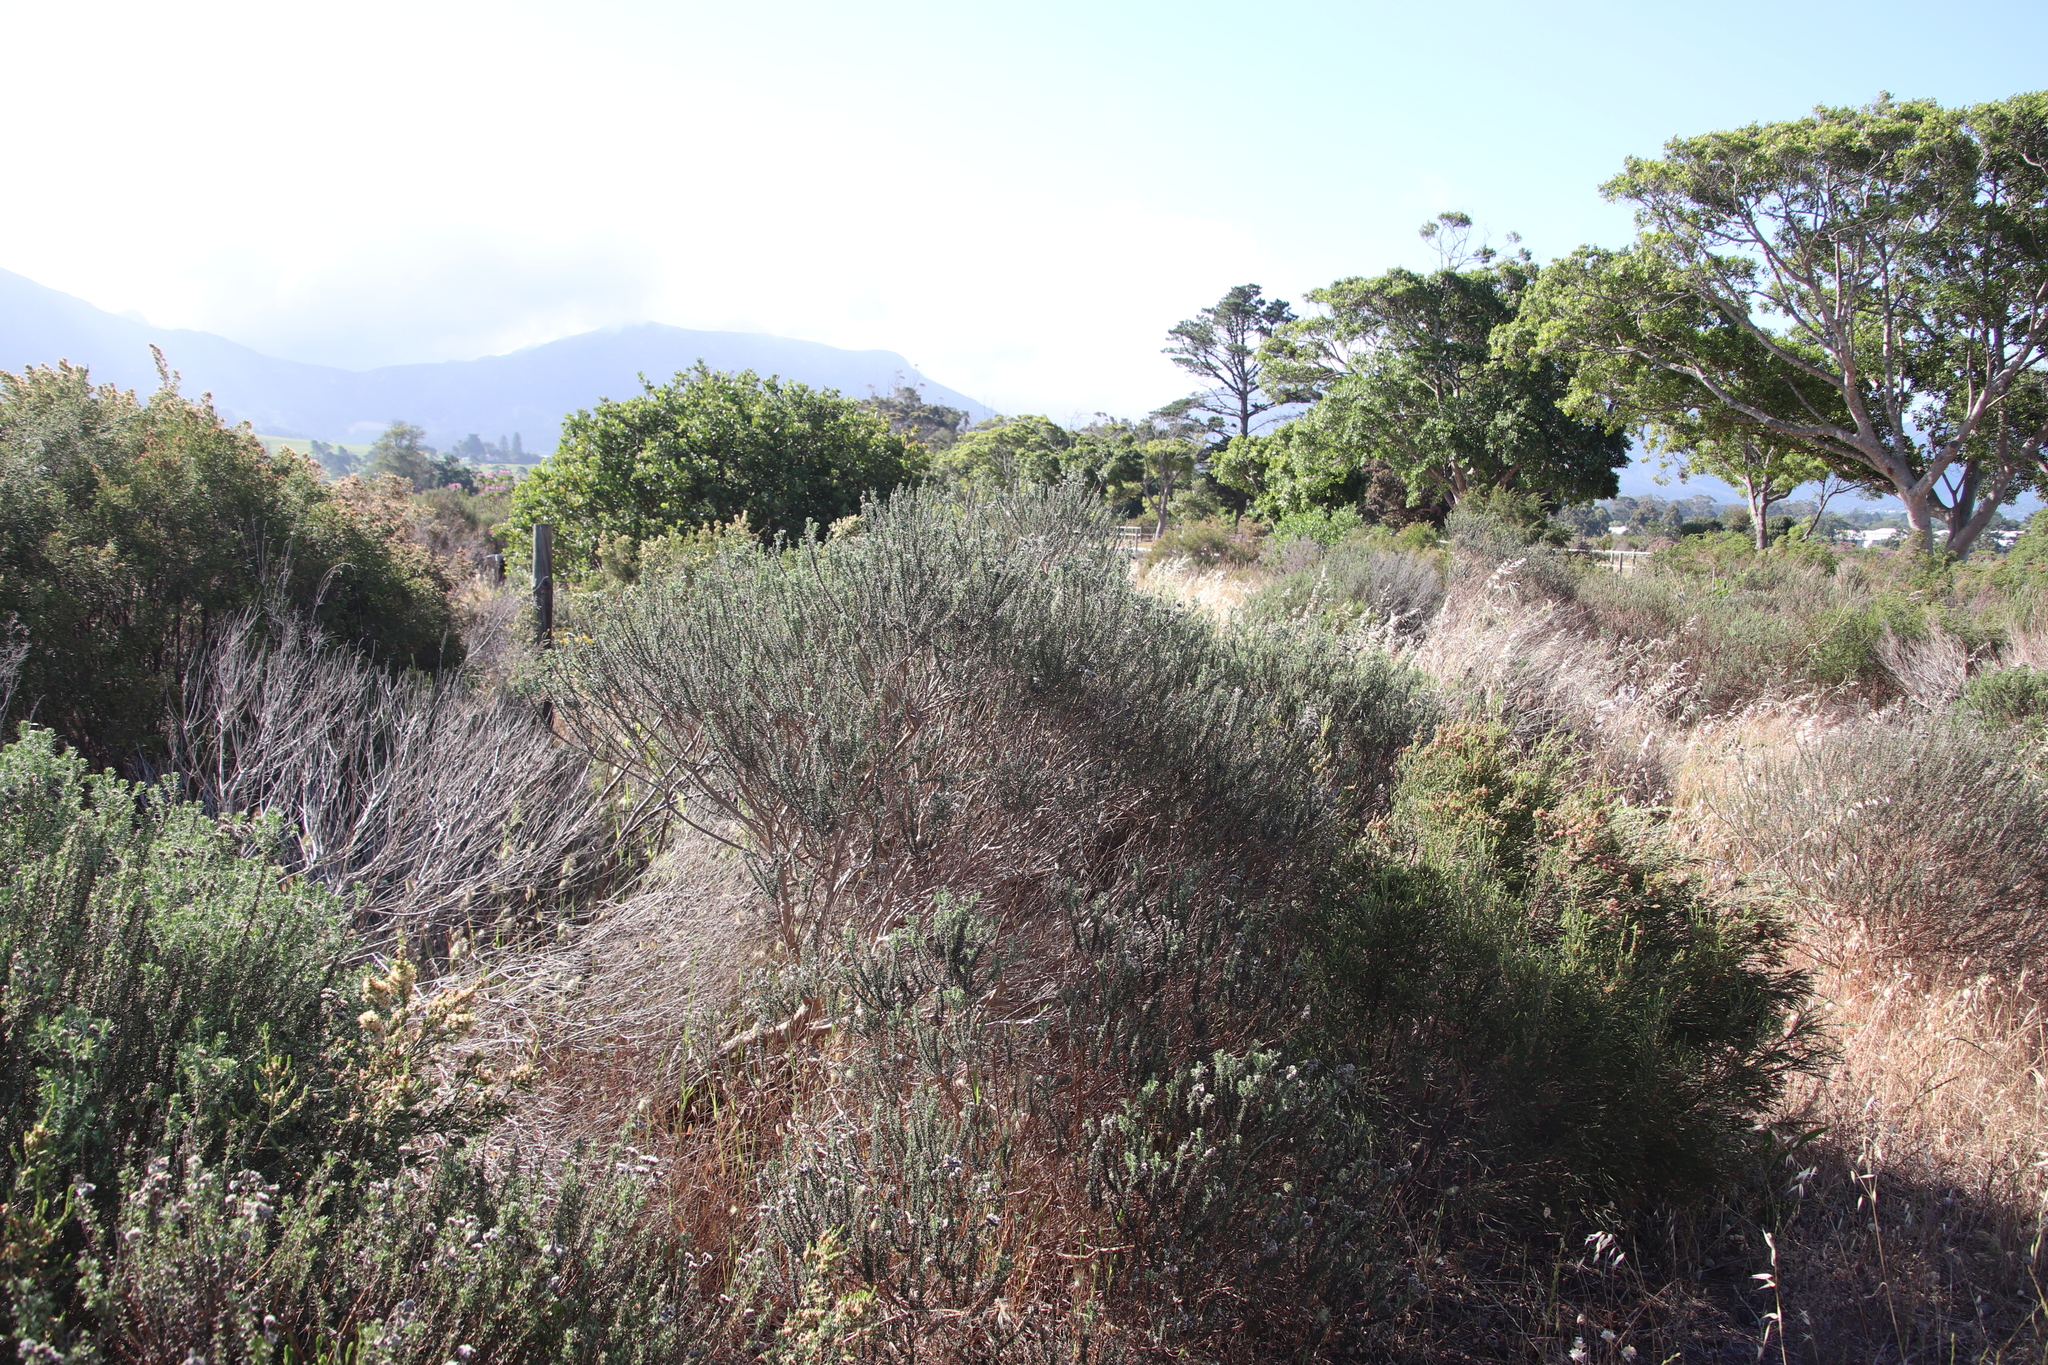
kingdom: Plantae
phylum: Tracheophyta
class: Magnoliopsida
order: Asterales
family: Asteraceae
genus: Metalasia
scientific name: Metalasia densa
